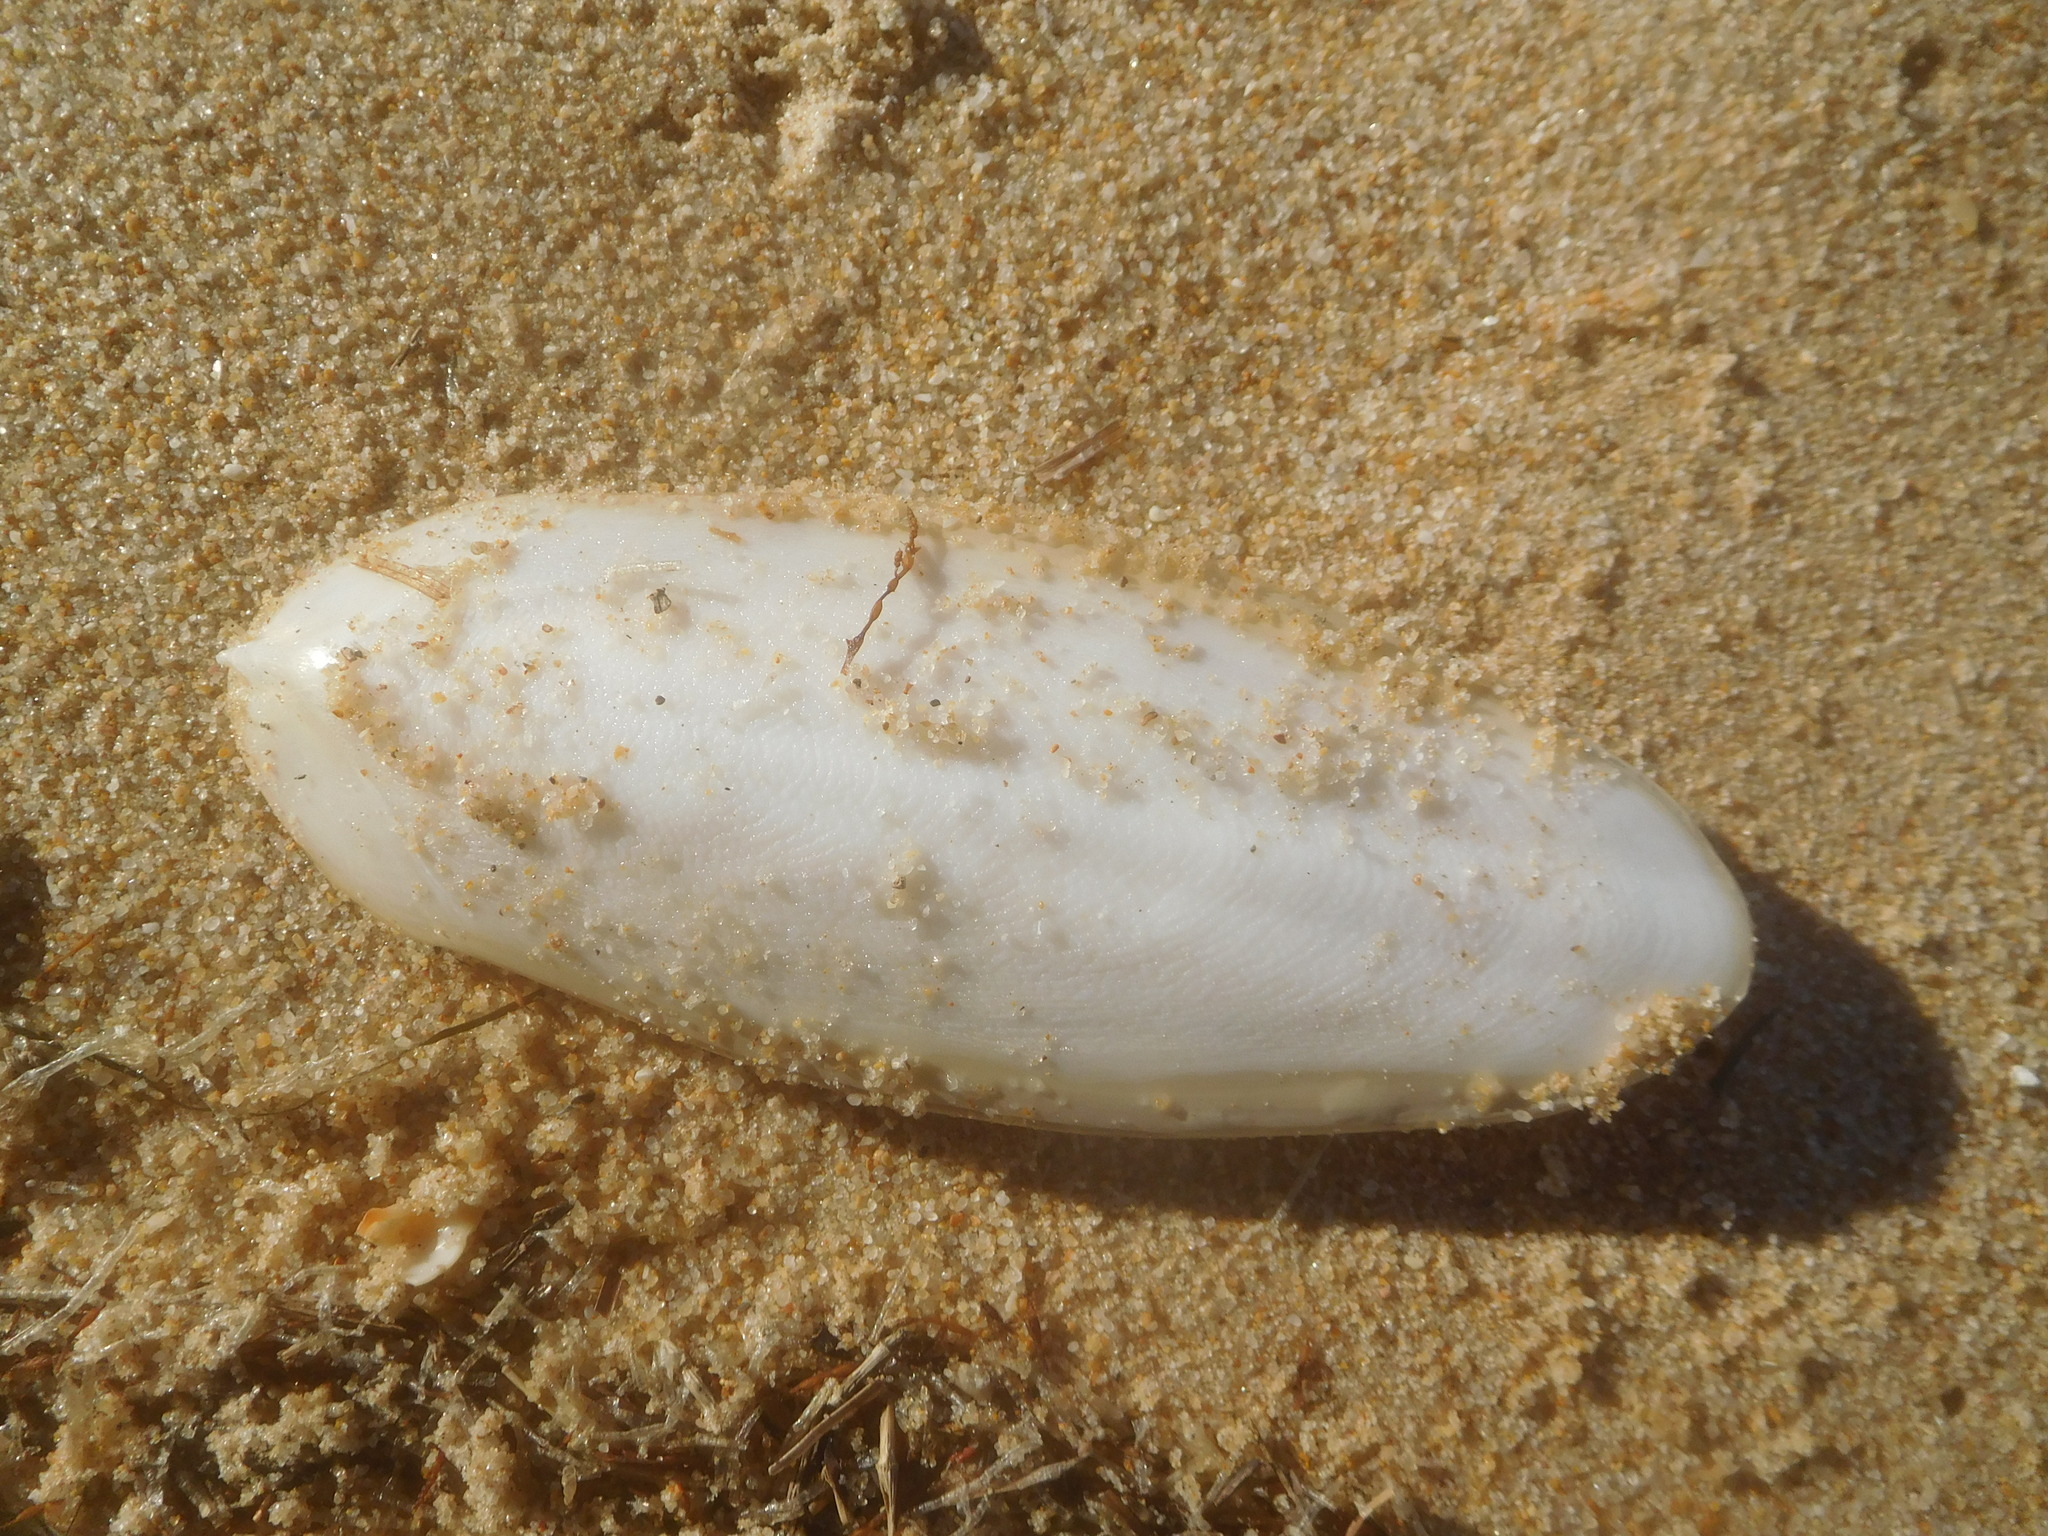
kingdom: Animalia
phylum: Mollusca
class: Cephalopoda
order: Sepiida
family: Sepiidae
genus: Sepia
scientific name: Sepia officinalis
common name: Common cuttlefish
